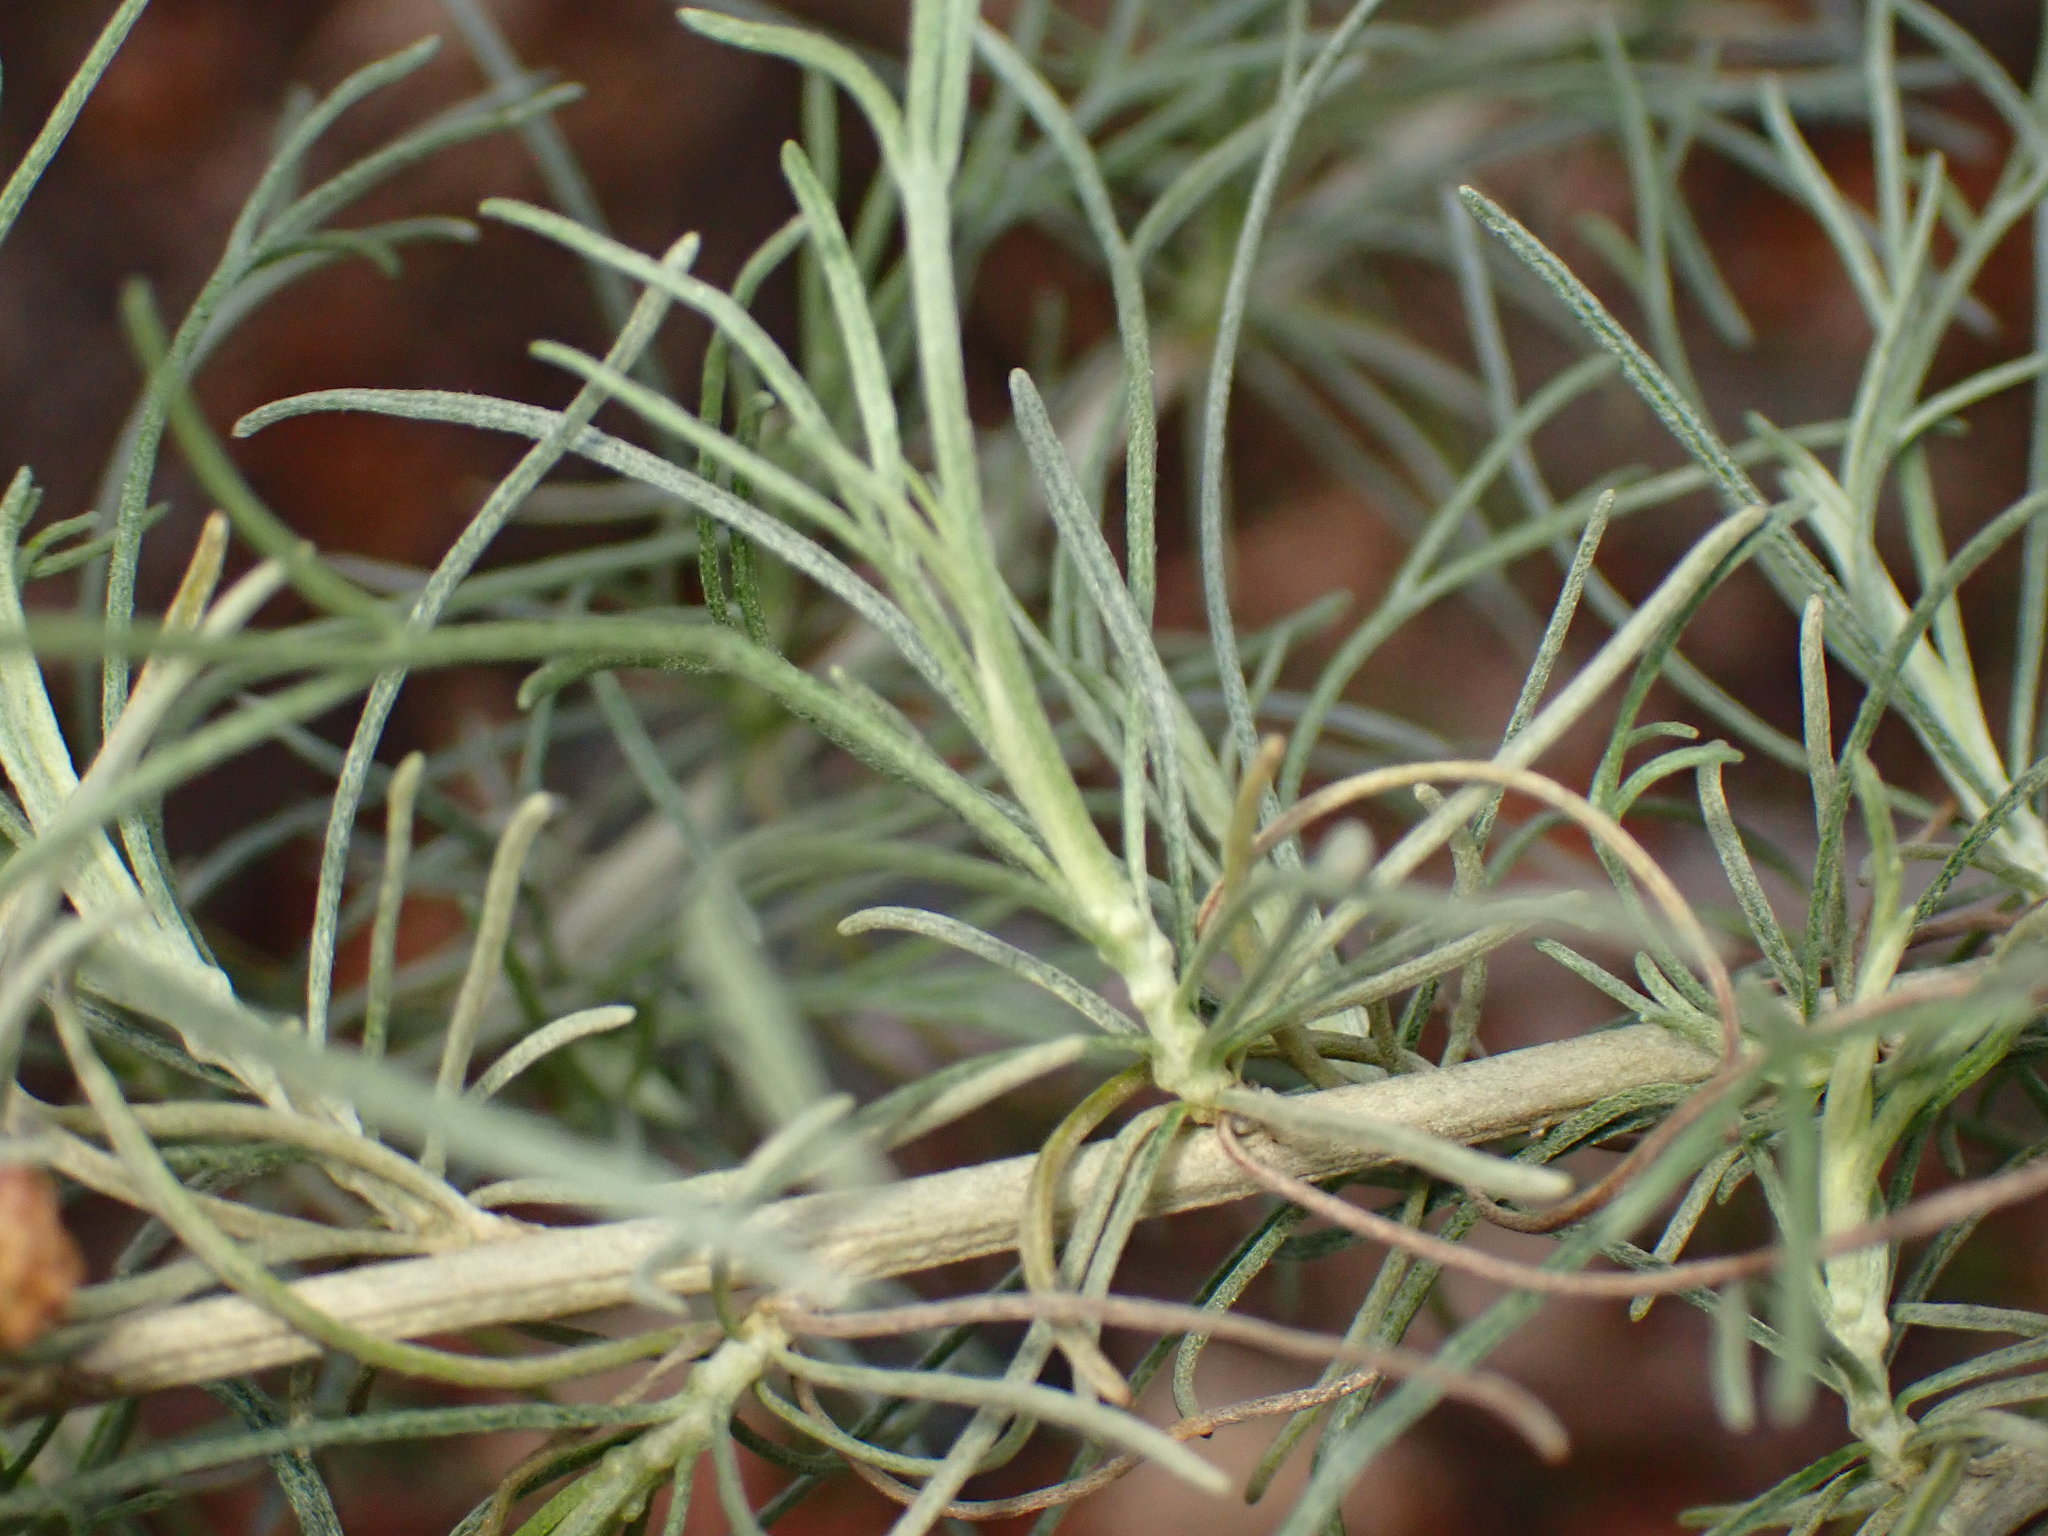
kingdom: Plantae
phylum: Tracheophyta
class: Magnoliopsida
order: Asterales
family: Asteraceae
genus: Artemisia
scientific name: Artemisia californica
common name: California sagebrush
